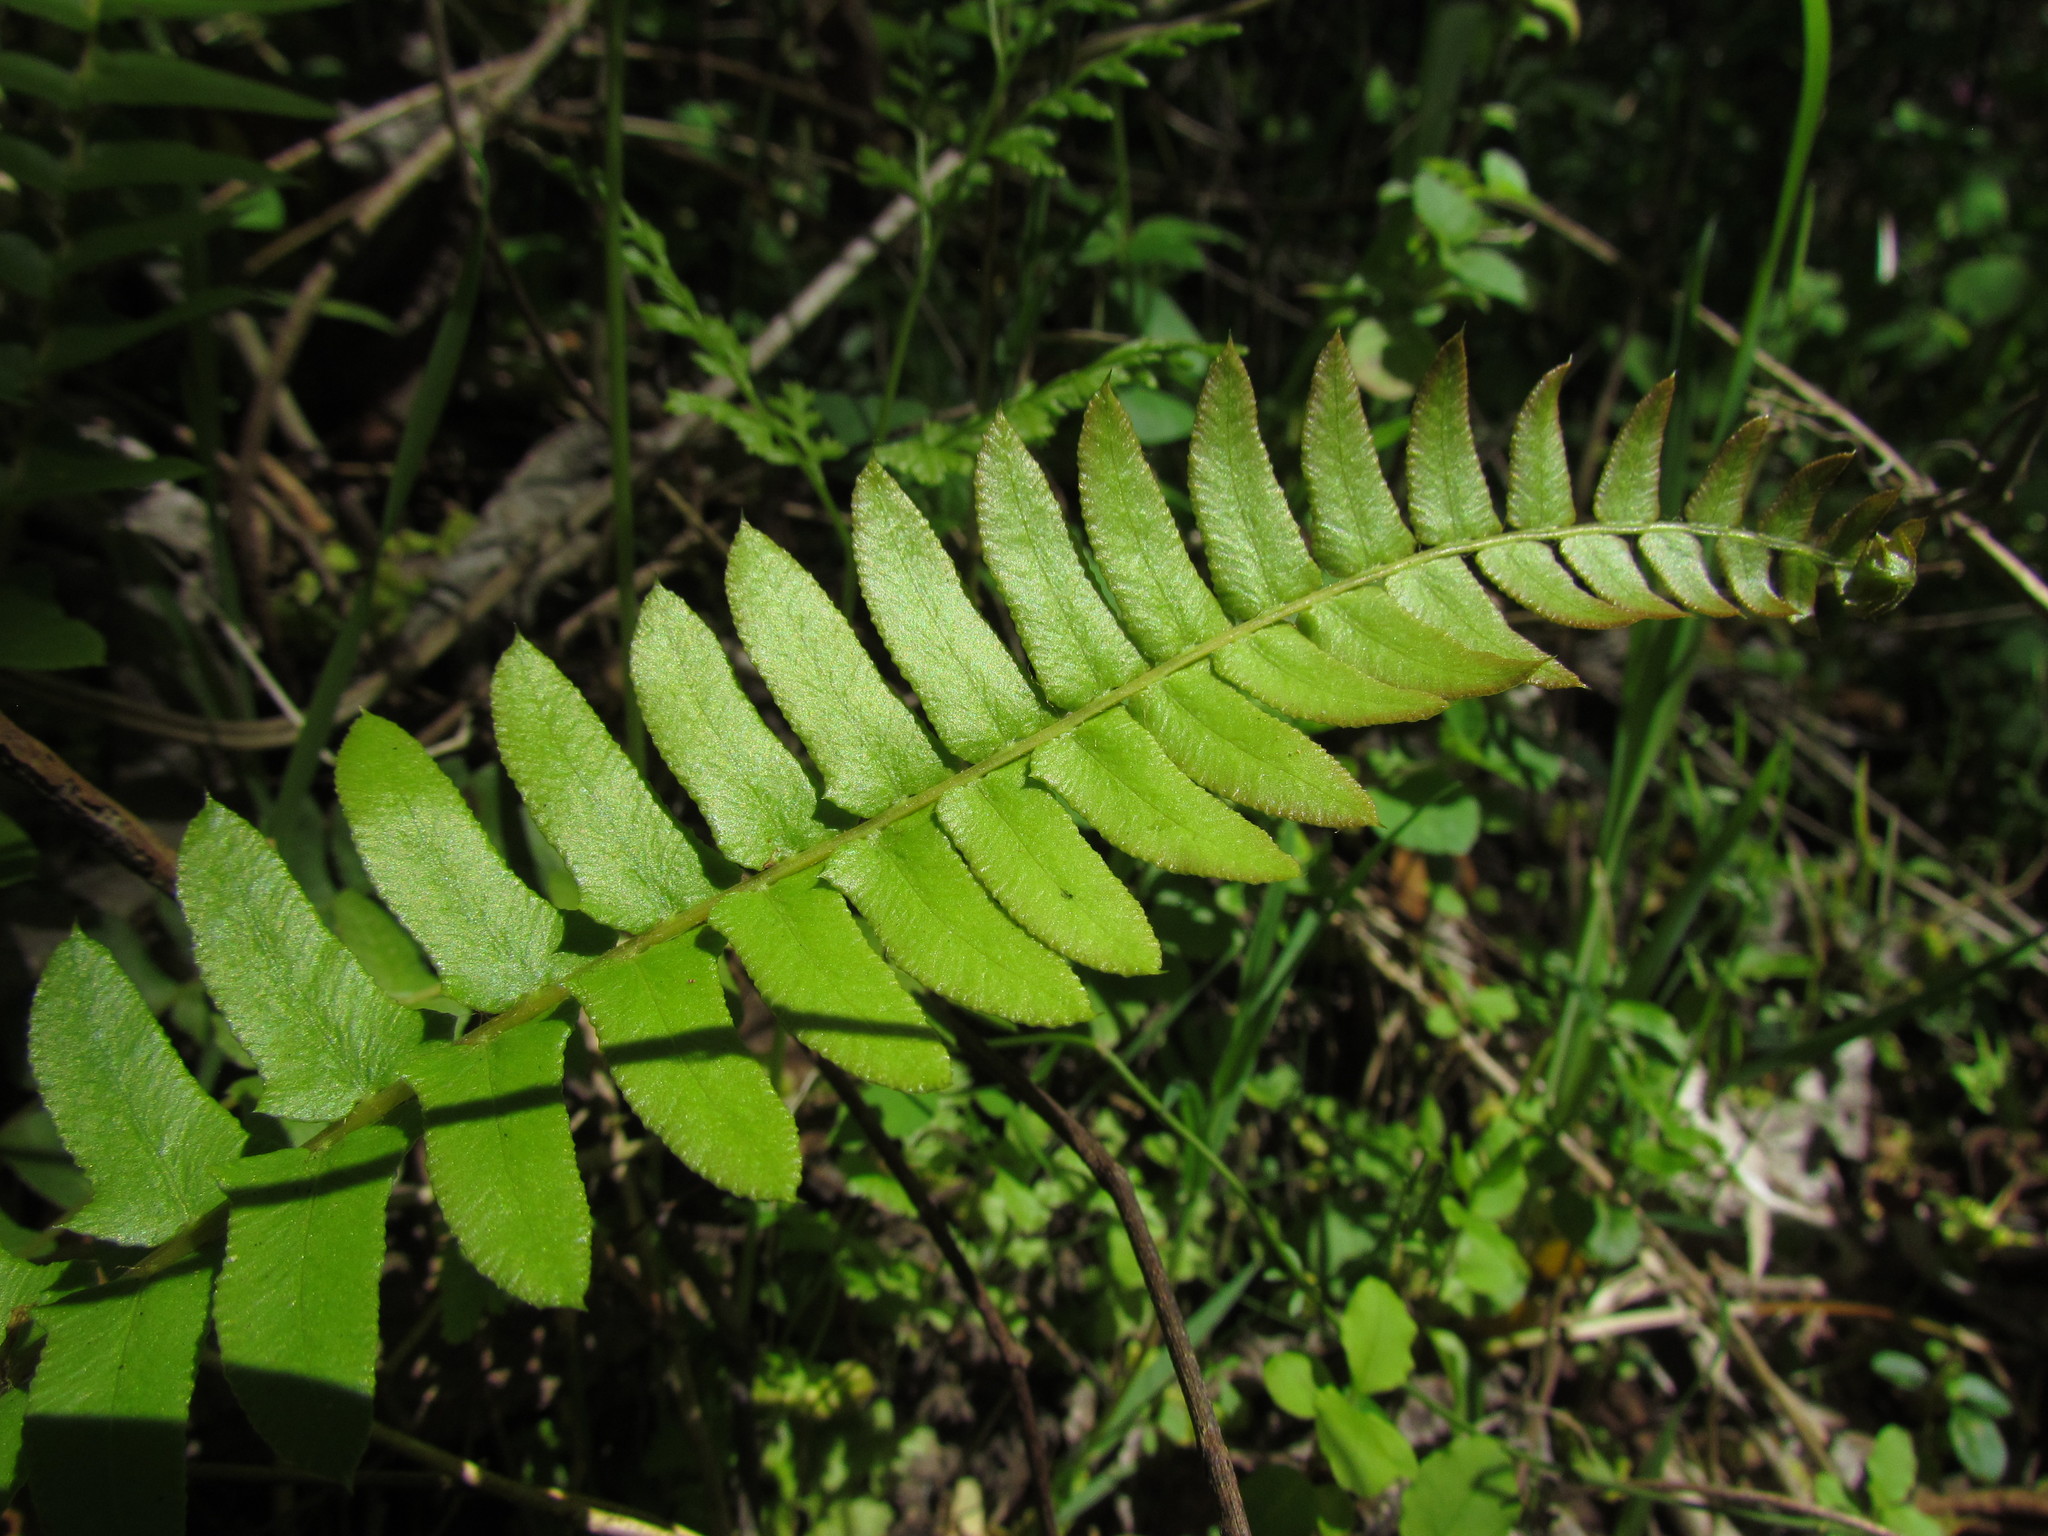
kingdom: Plantae
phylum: Tracheophyta
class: Polypodiopsida
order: Polypodiales
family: Nephrolepidaceae
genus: Nephrolepis
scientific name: Nephrolepis cordifolia
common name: Narrow swordfern
